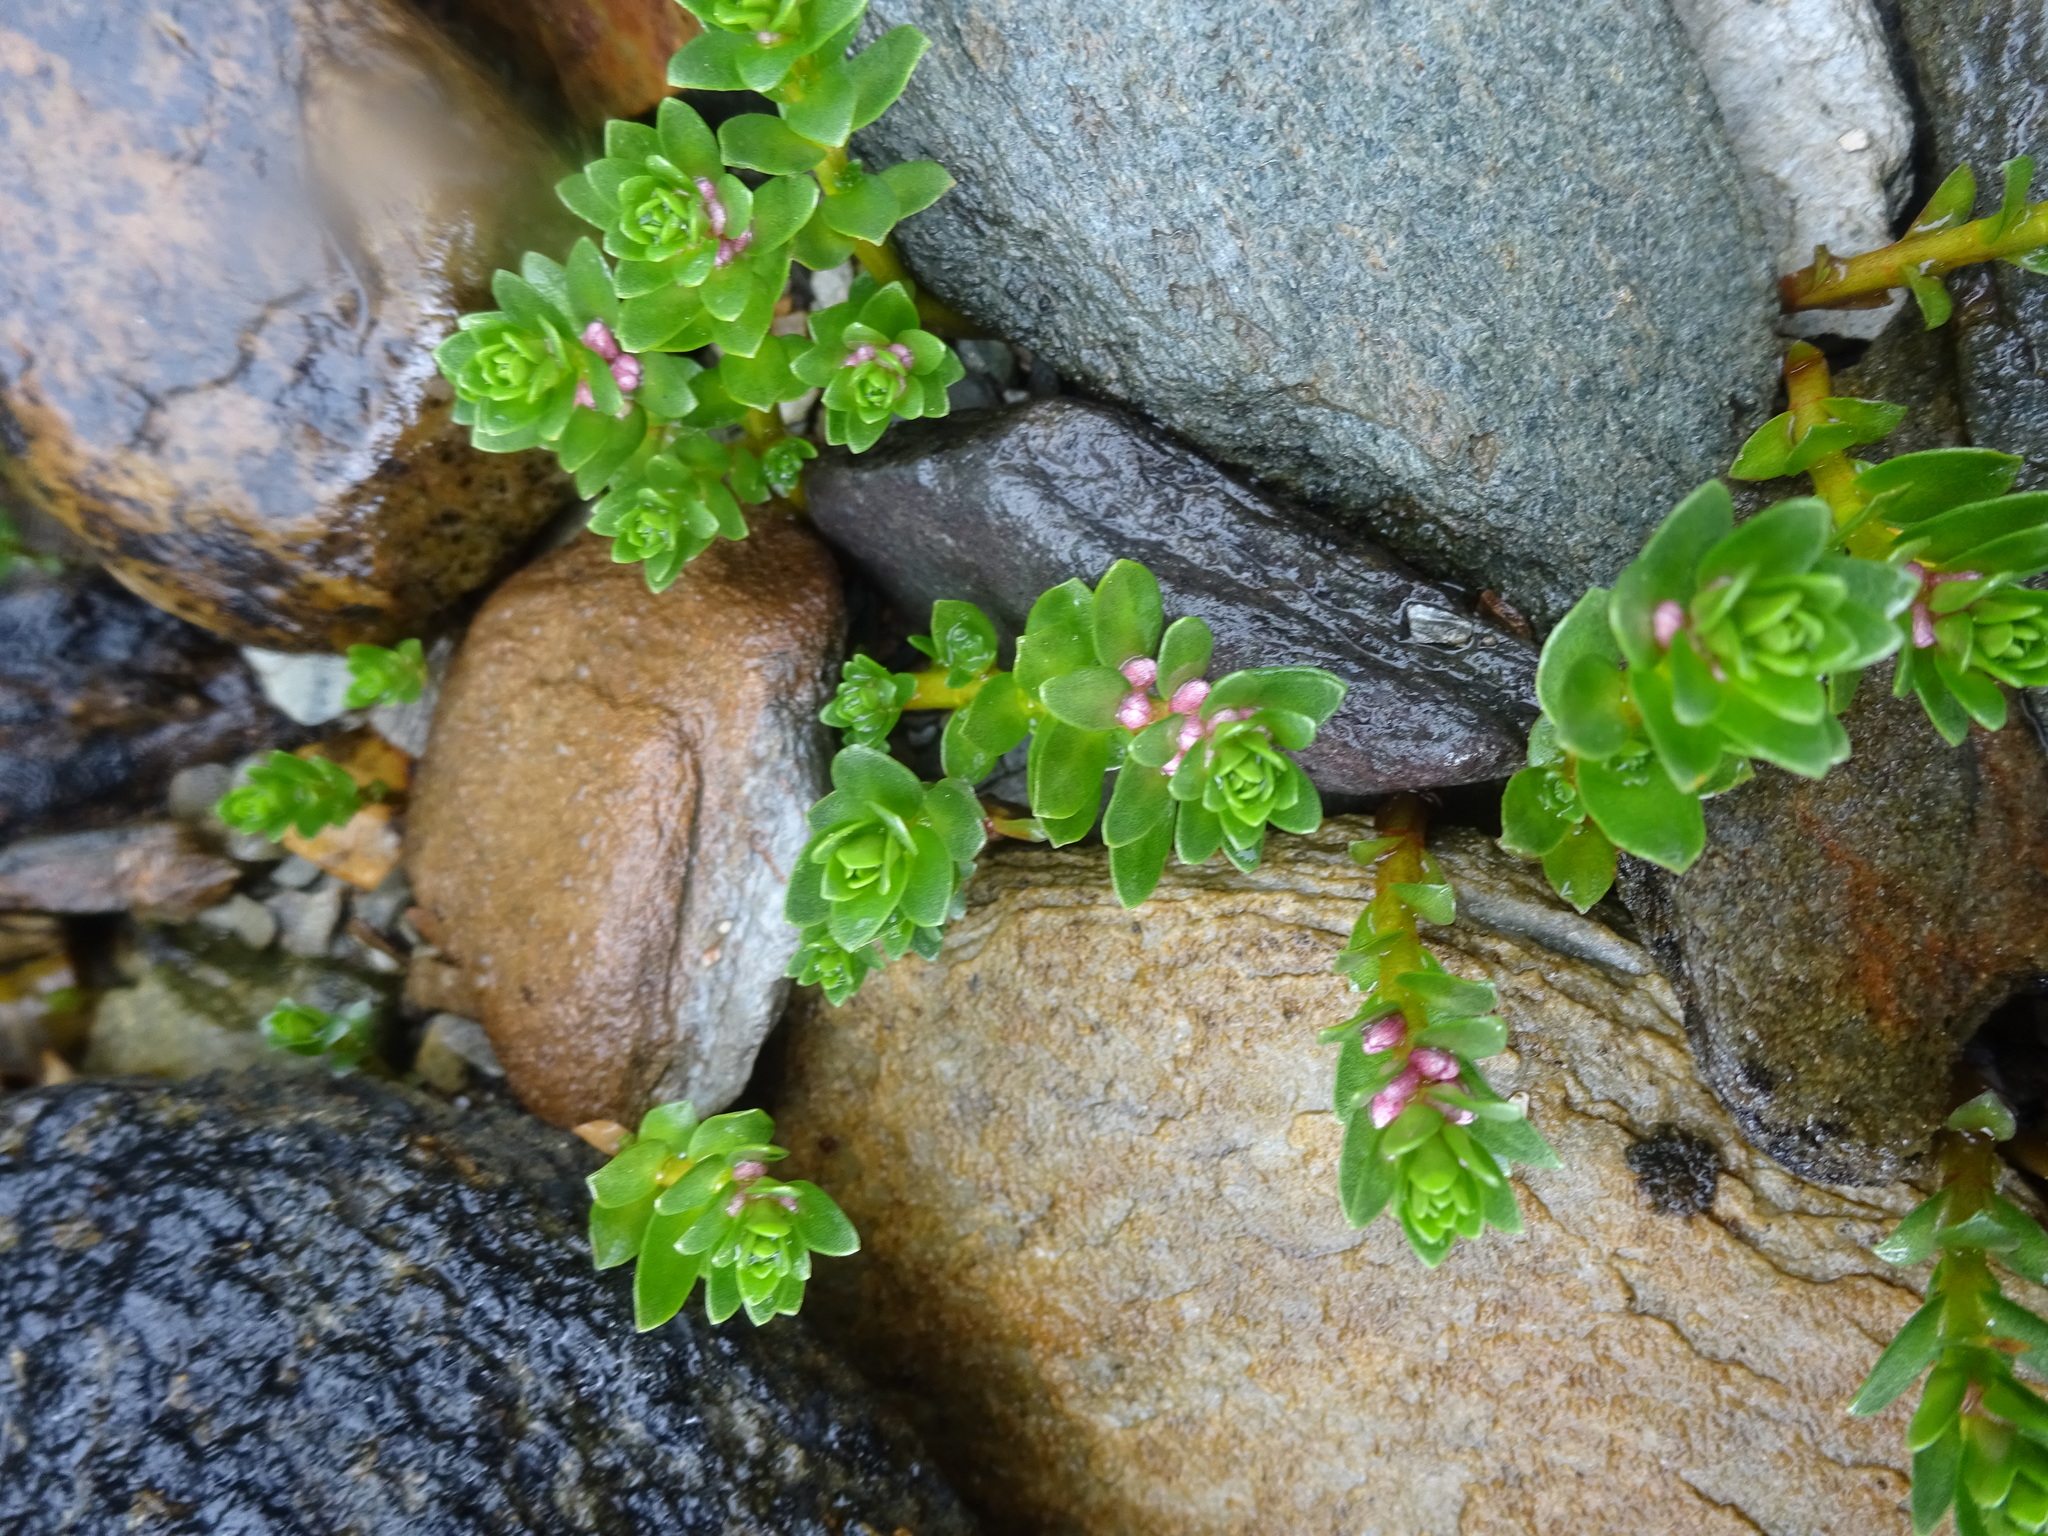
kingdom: Plantae
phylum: Tracheophyta
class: Magnoliopsida
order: Ericales
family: Primulaceae
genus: Lysimachia
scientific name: Lysimachia maritima
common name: Sea milkwort
